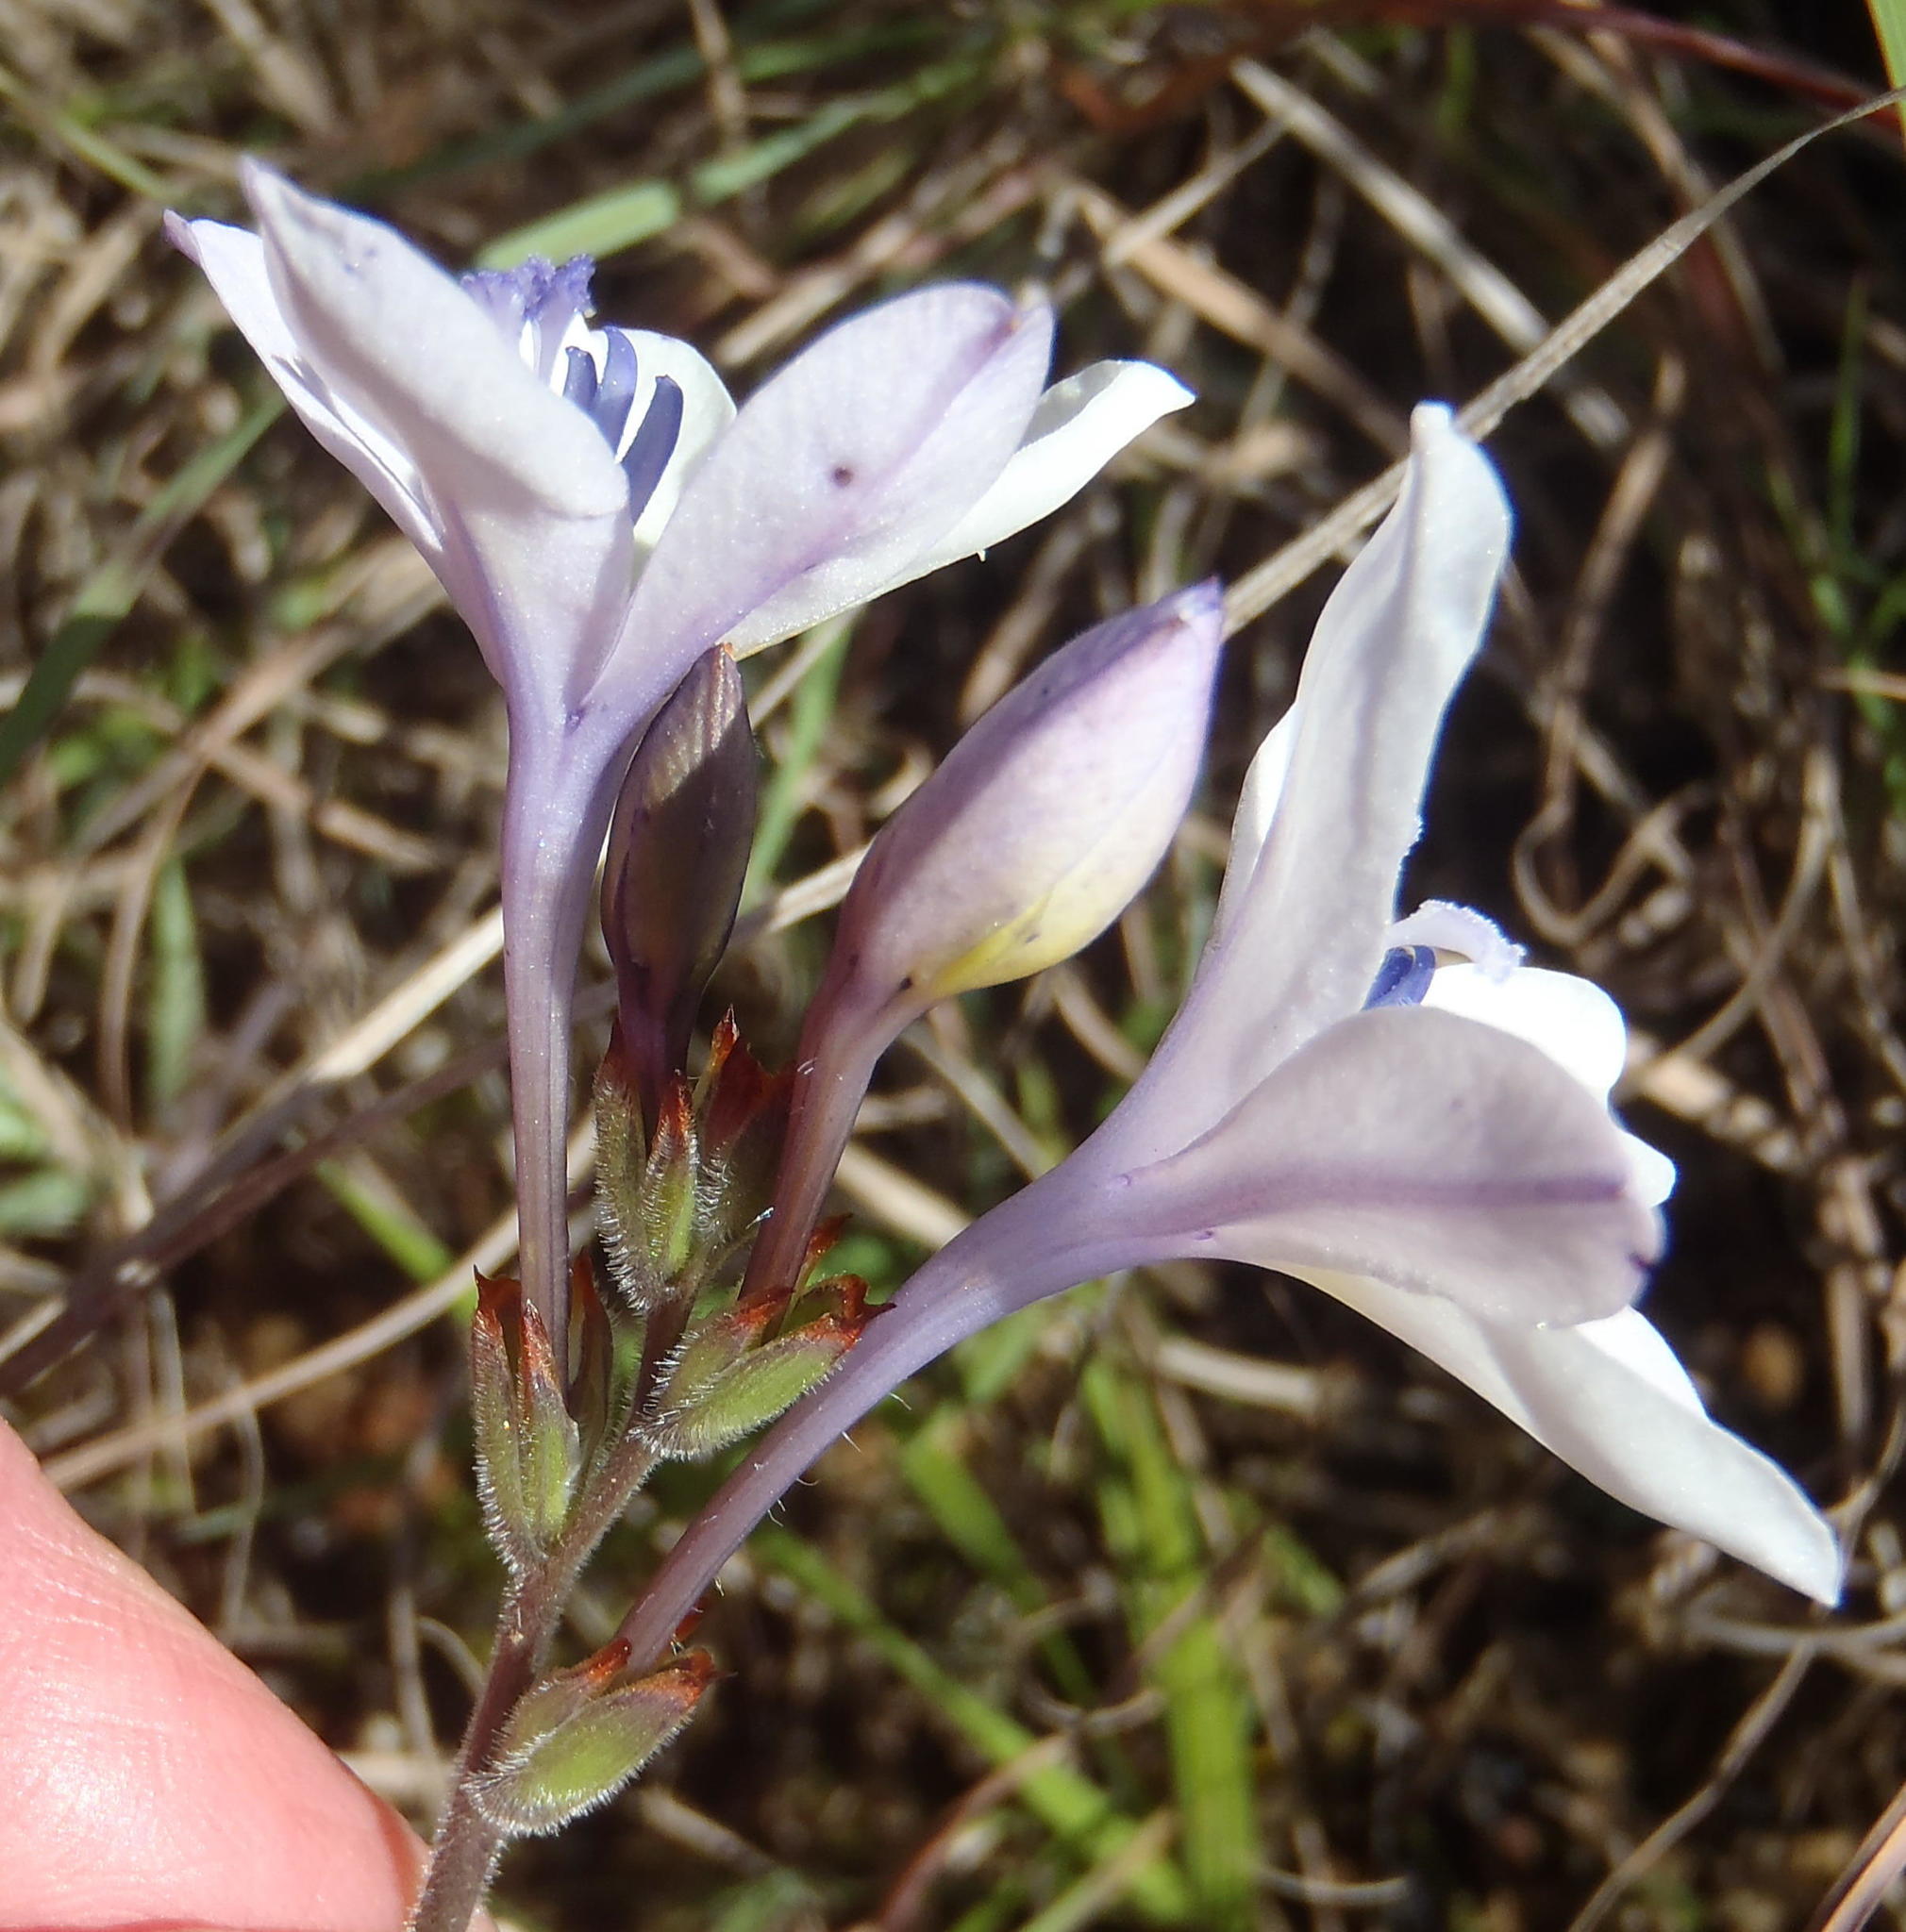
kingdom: Plantae
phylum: Tracheophyta
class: Liliopsida
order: Asparagales
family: Iridaceae
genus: Babiana
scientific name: Babiana patersoniae
